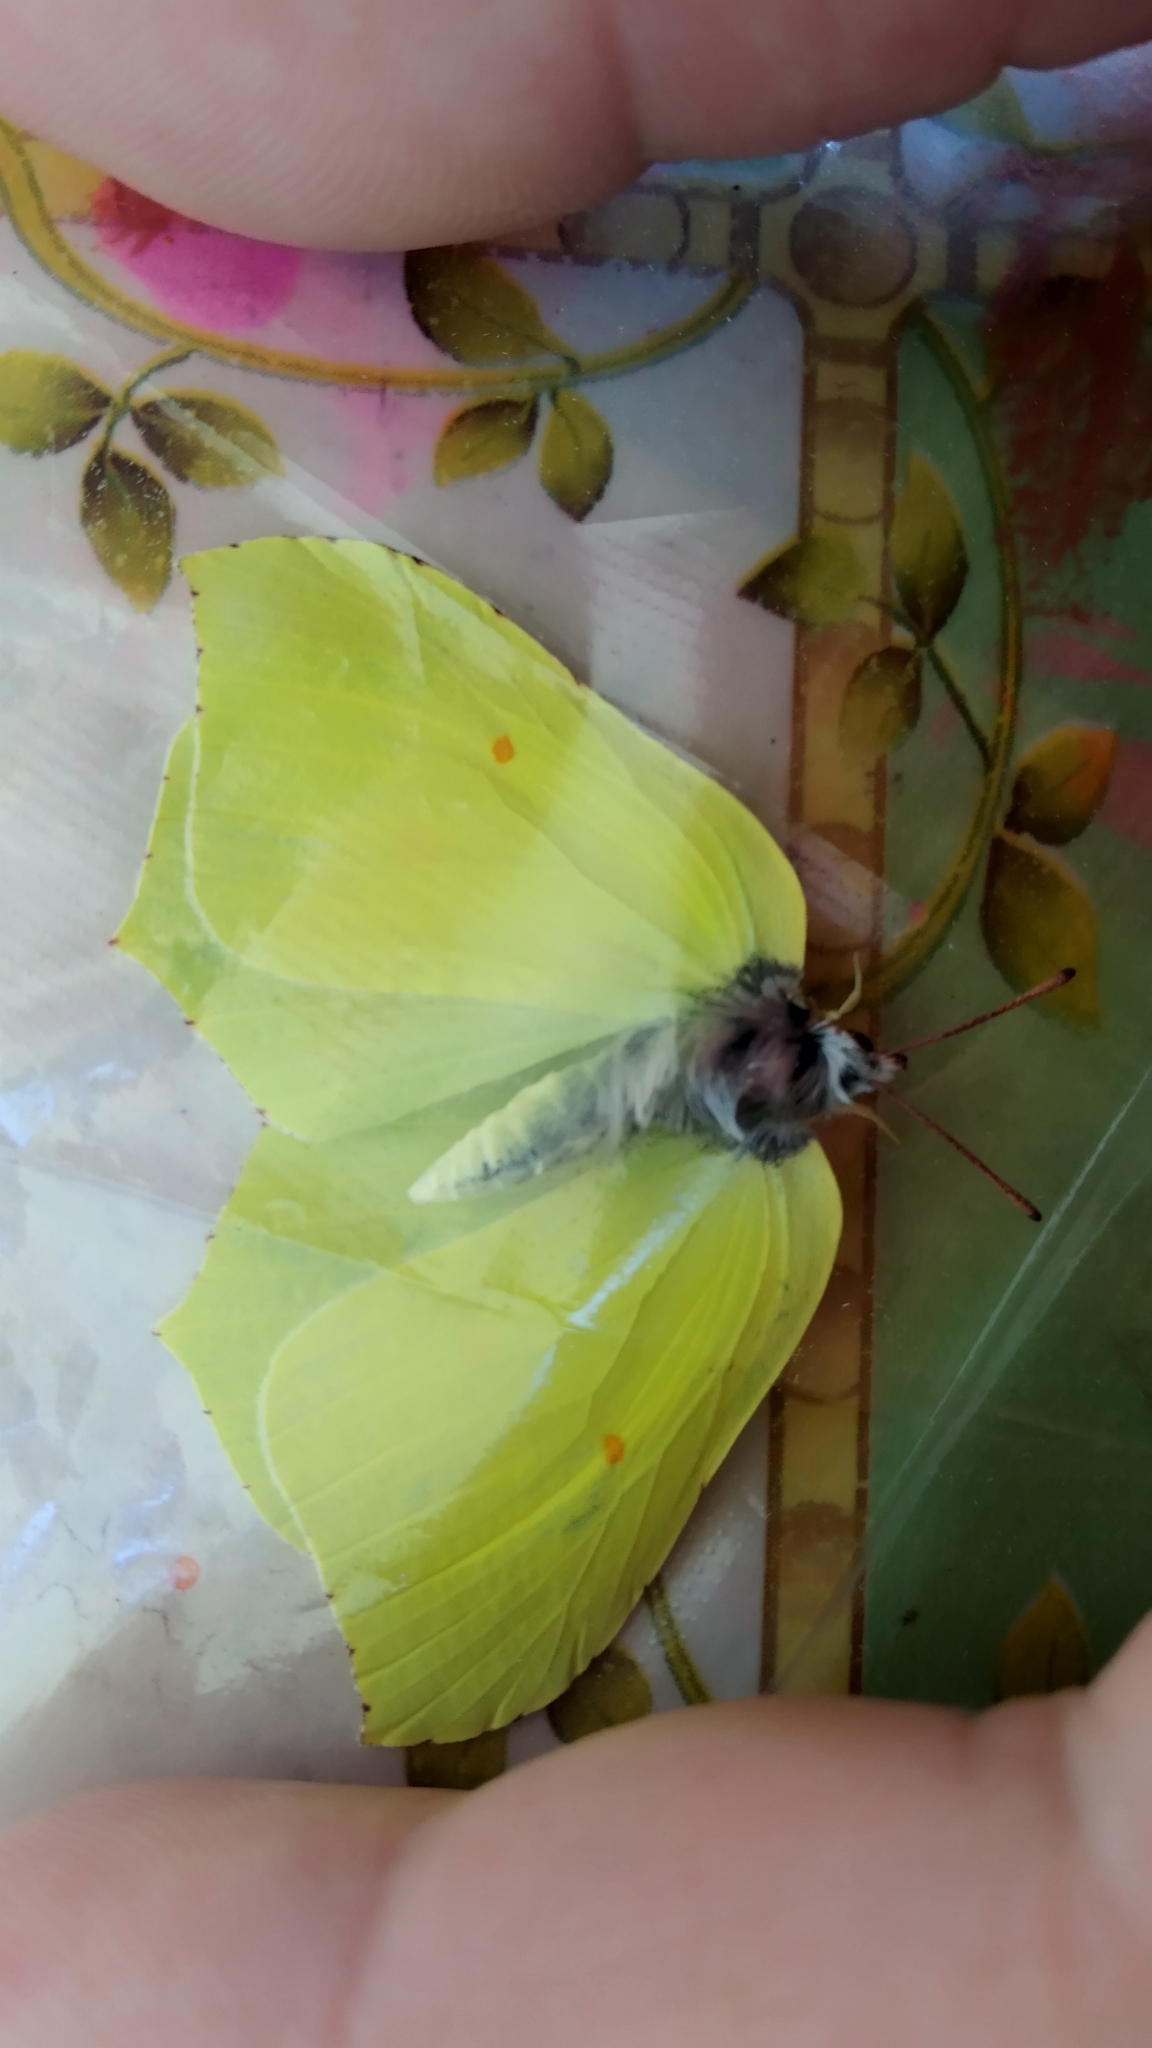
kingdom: Animalia
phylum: Arthropoda
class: Insecta
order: Lepidoptera
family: Pieridae
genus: Gonepteryx
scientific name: Gonepteryx rhamni
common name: Brimstone
